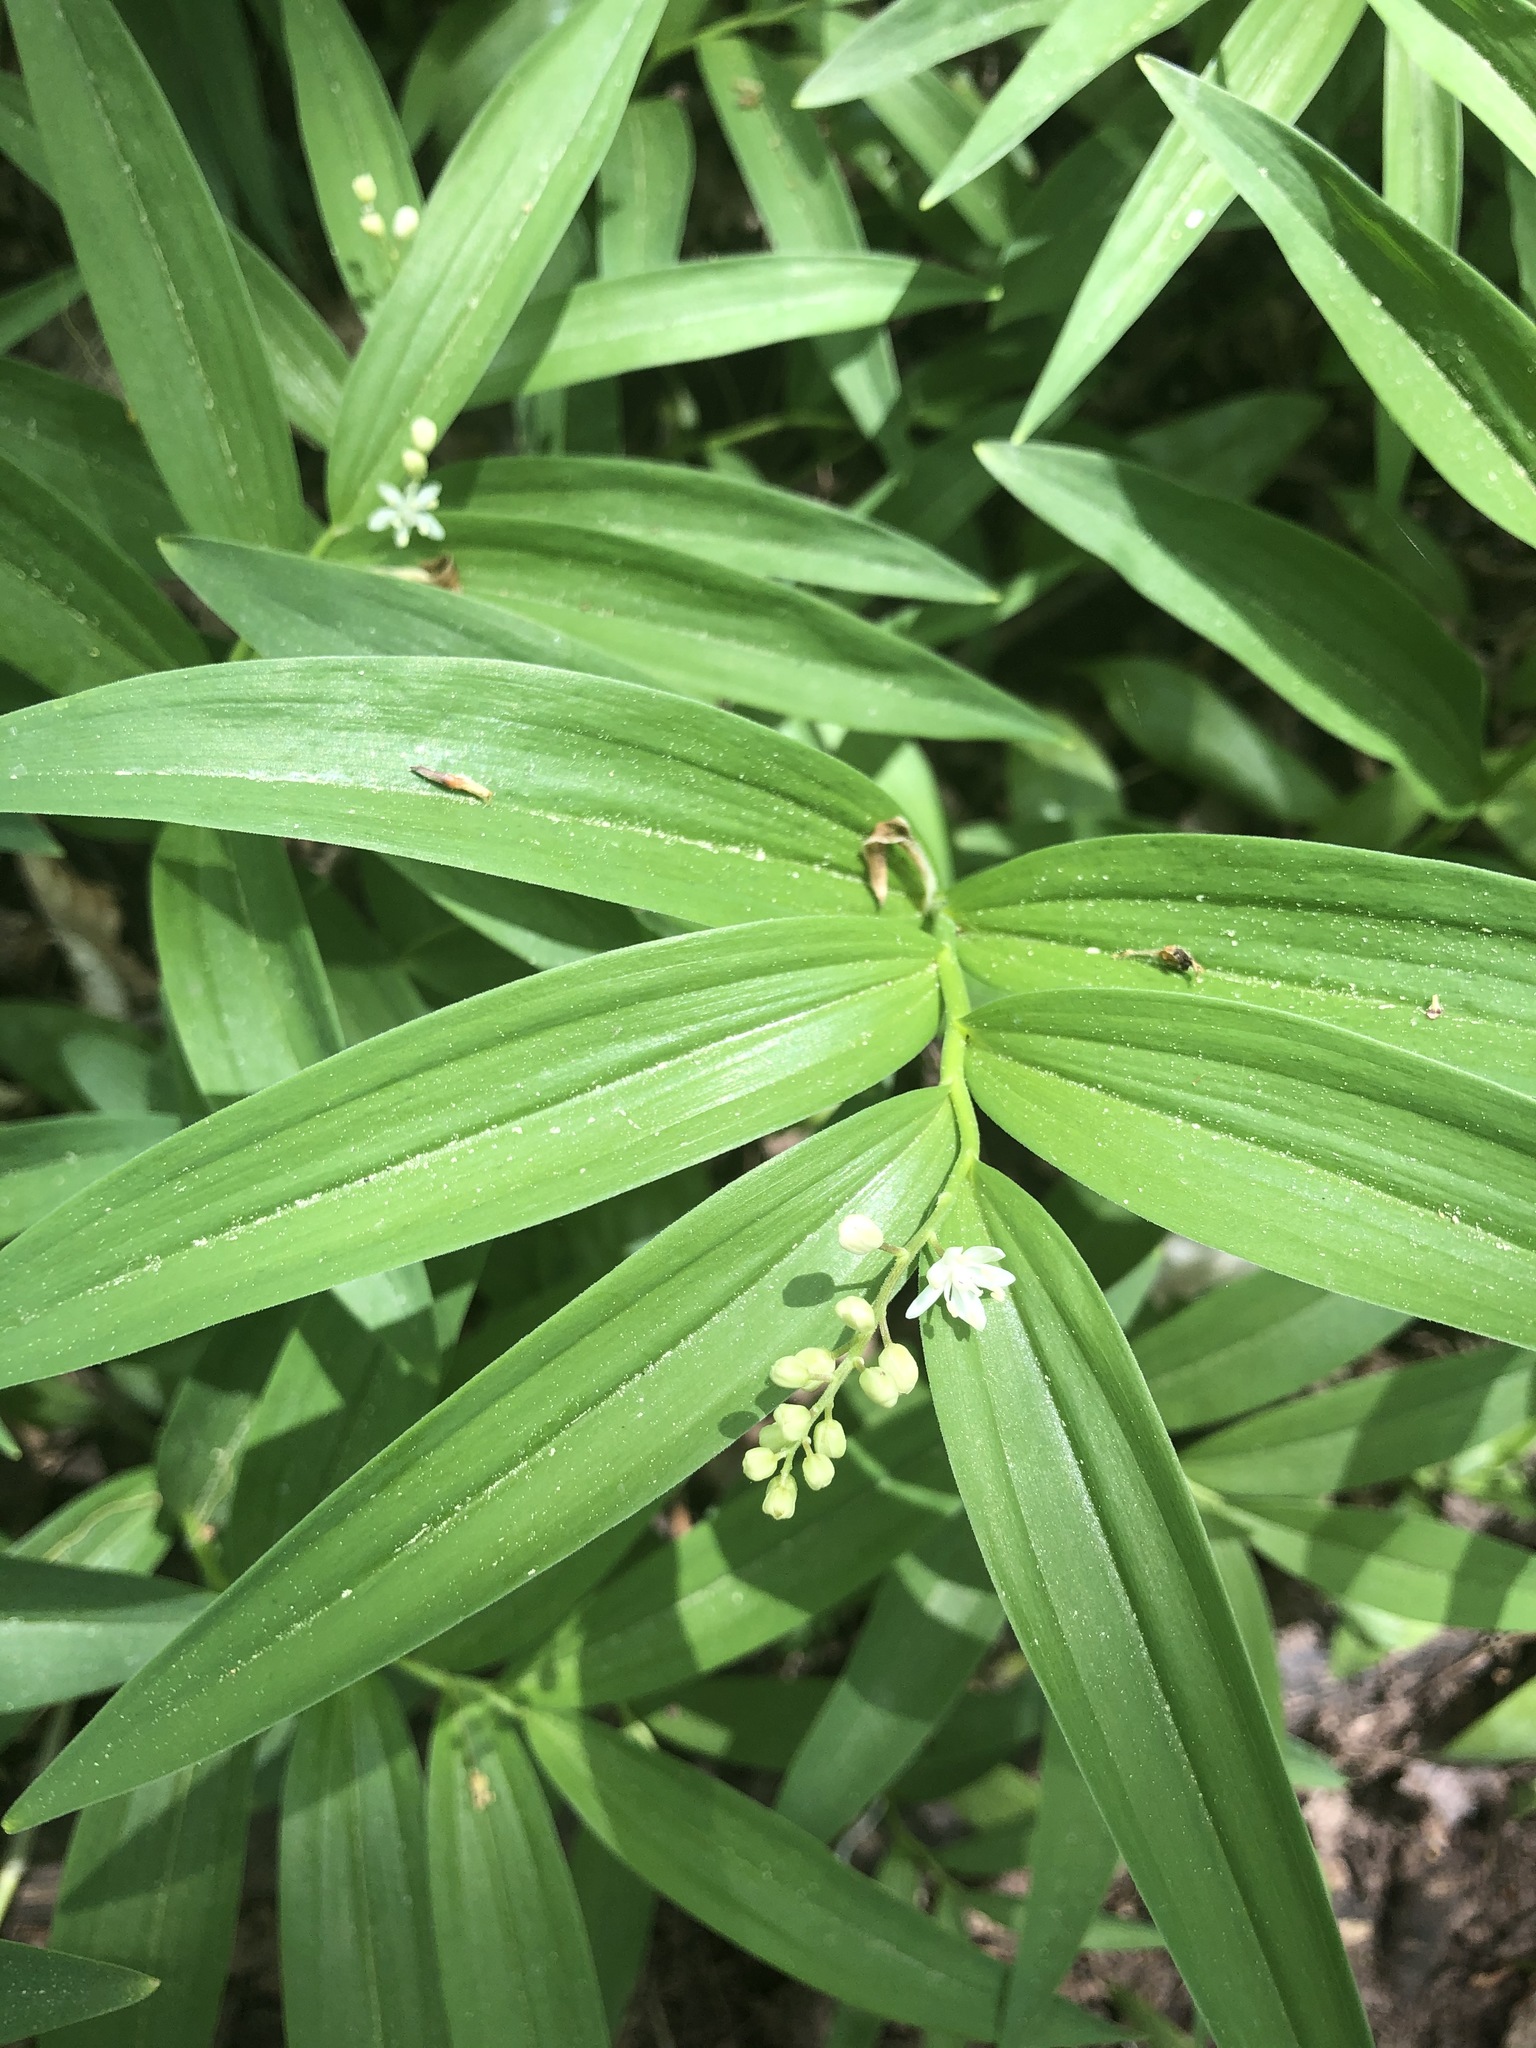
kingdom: Plantae
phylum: Tracheophyta
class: Liliopsida
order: Asparagales
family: Asparagaceae
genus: Maianthemum
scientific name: Maianthemum stellatum
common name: Little false solomon's seal
